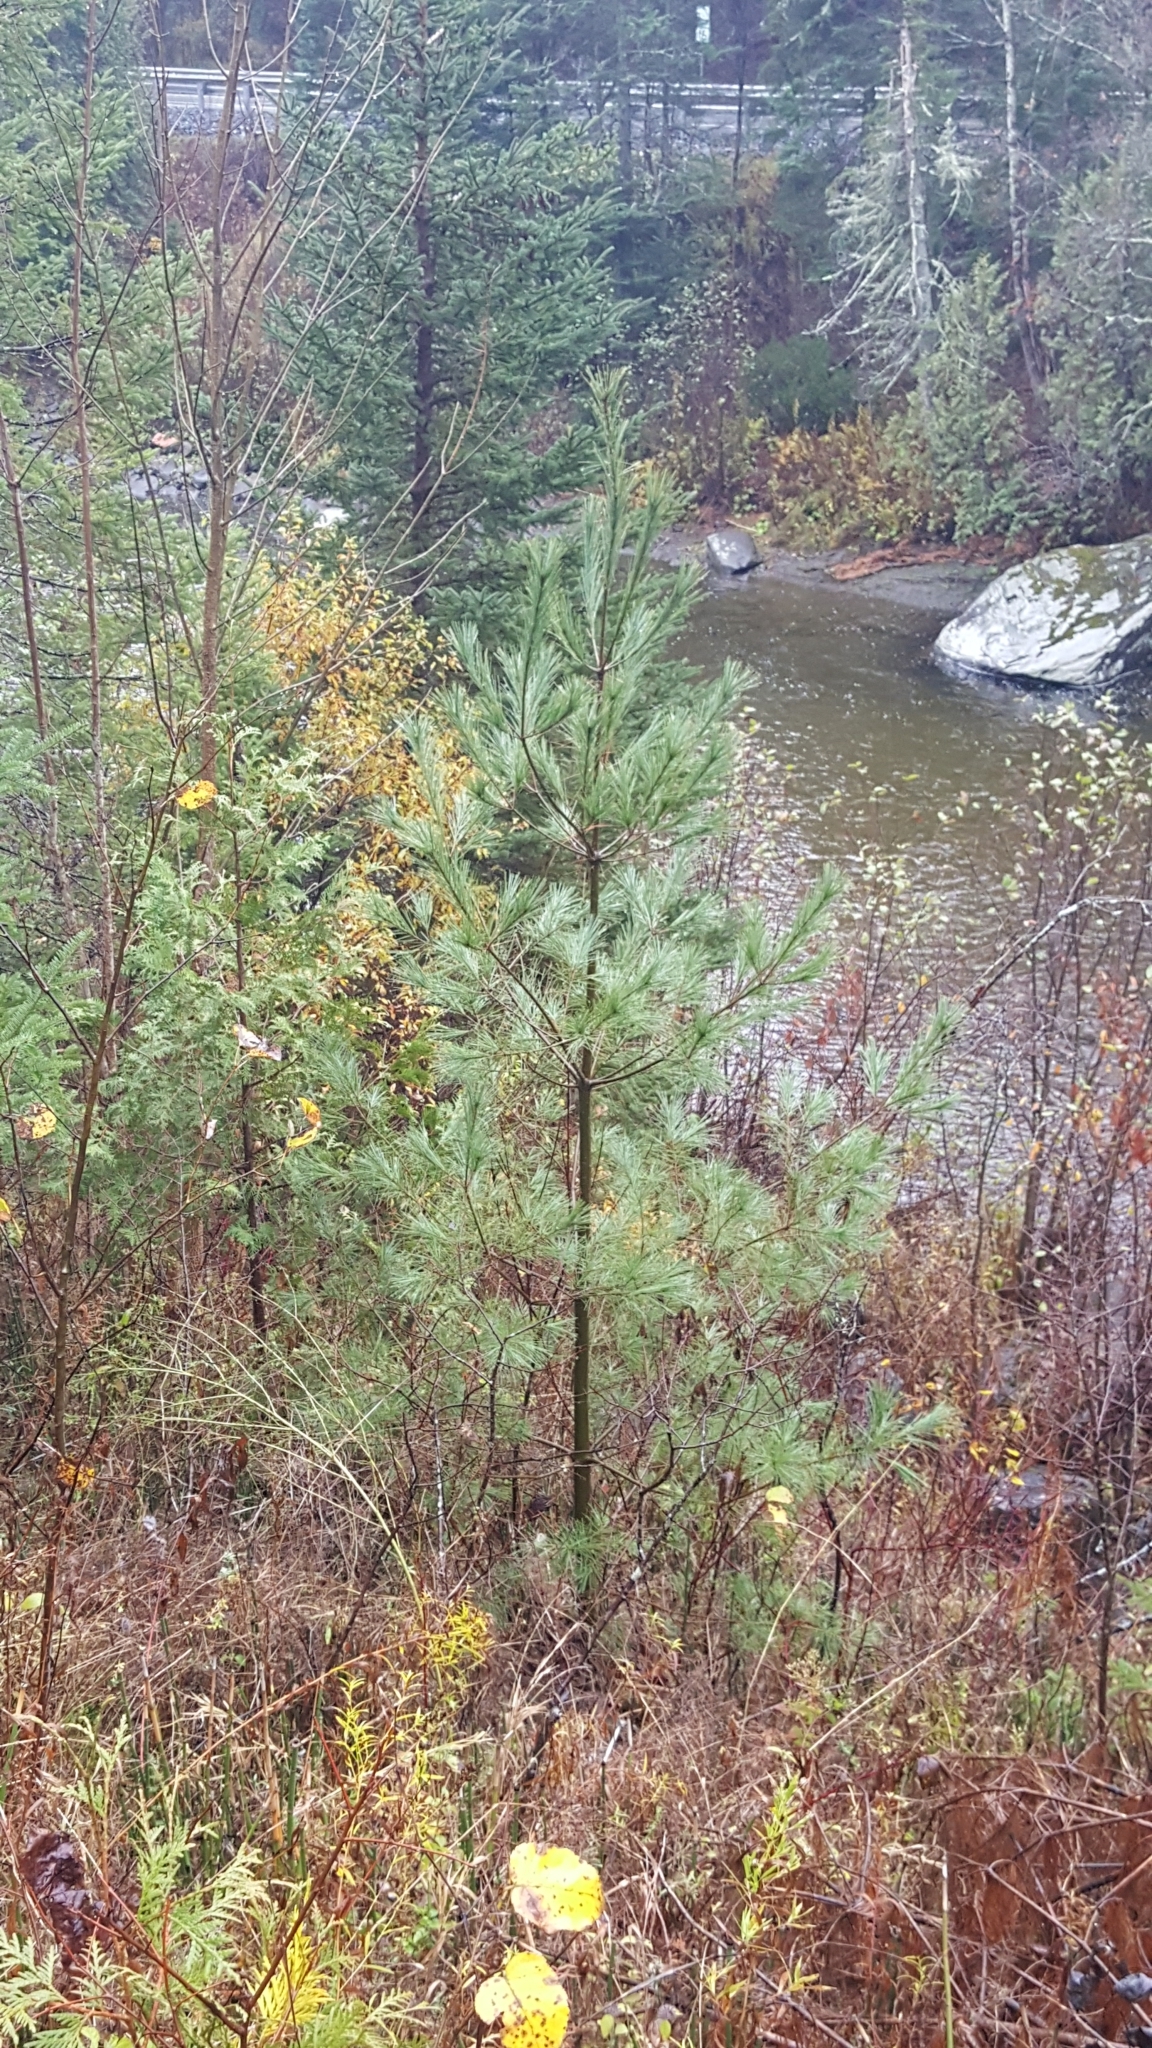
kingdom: Plantae
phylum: Tracheophyta
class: Pinopsida
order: Pinales
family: Pinaceae
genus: Pinus
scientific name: Pinus strobus
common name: Weymouth pine
